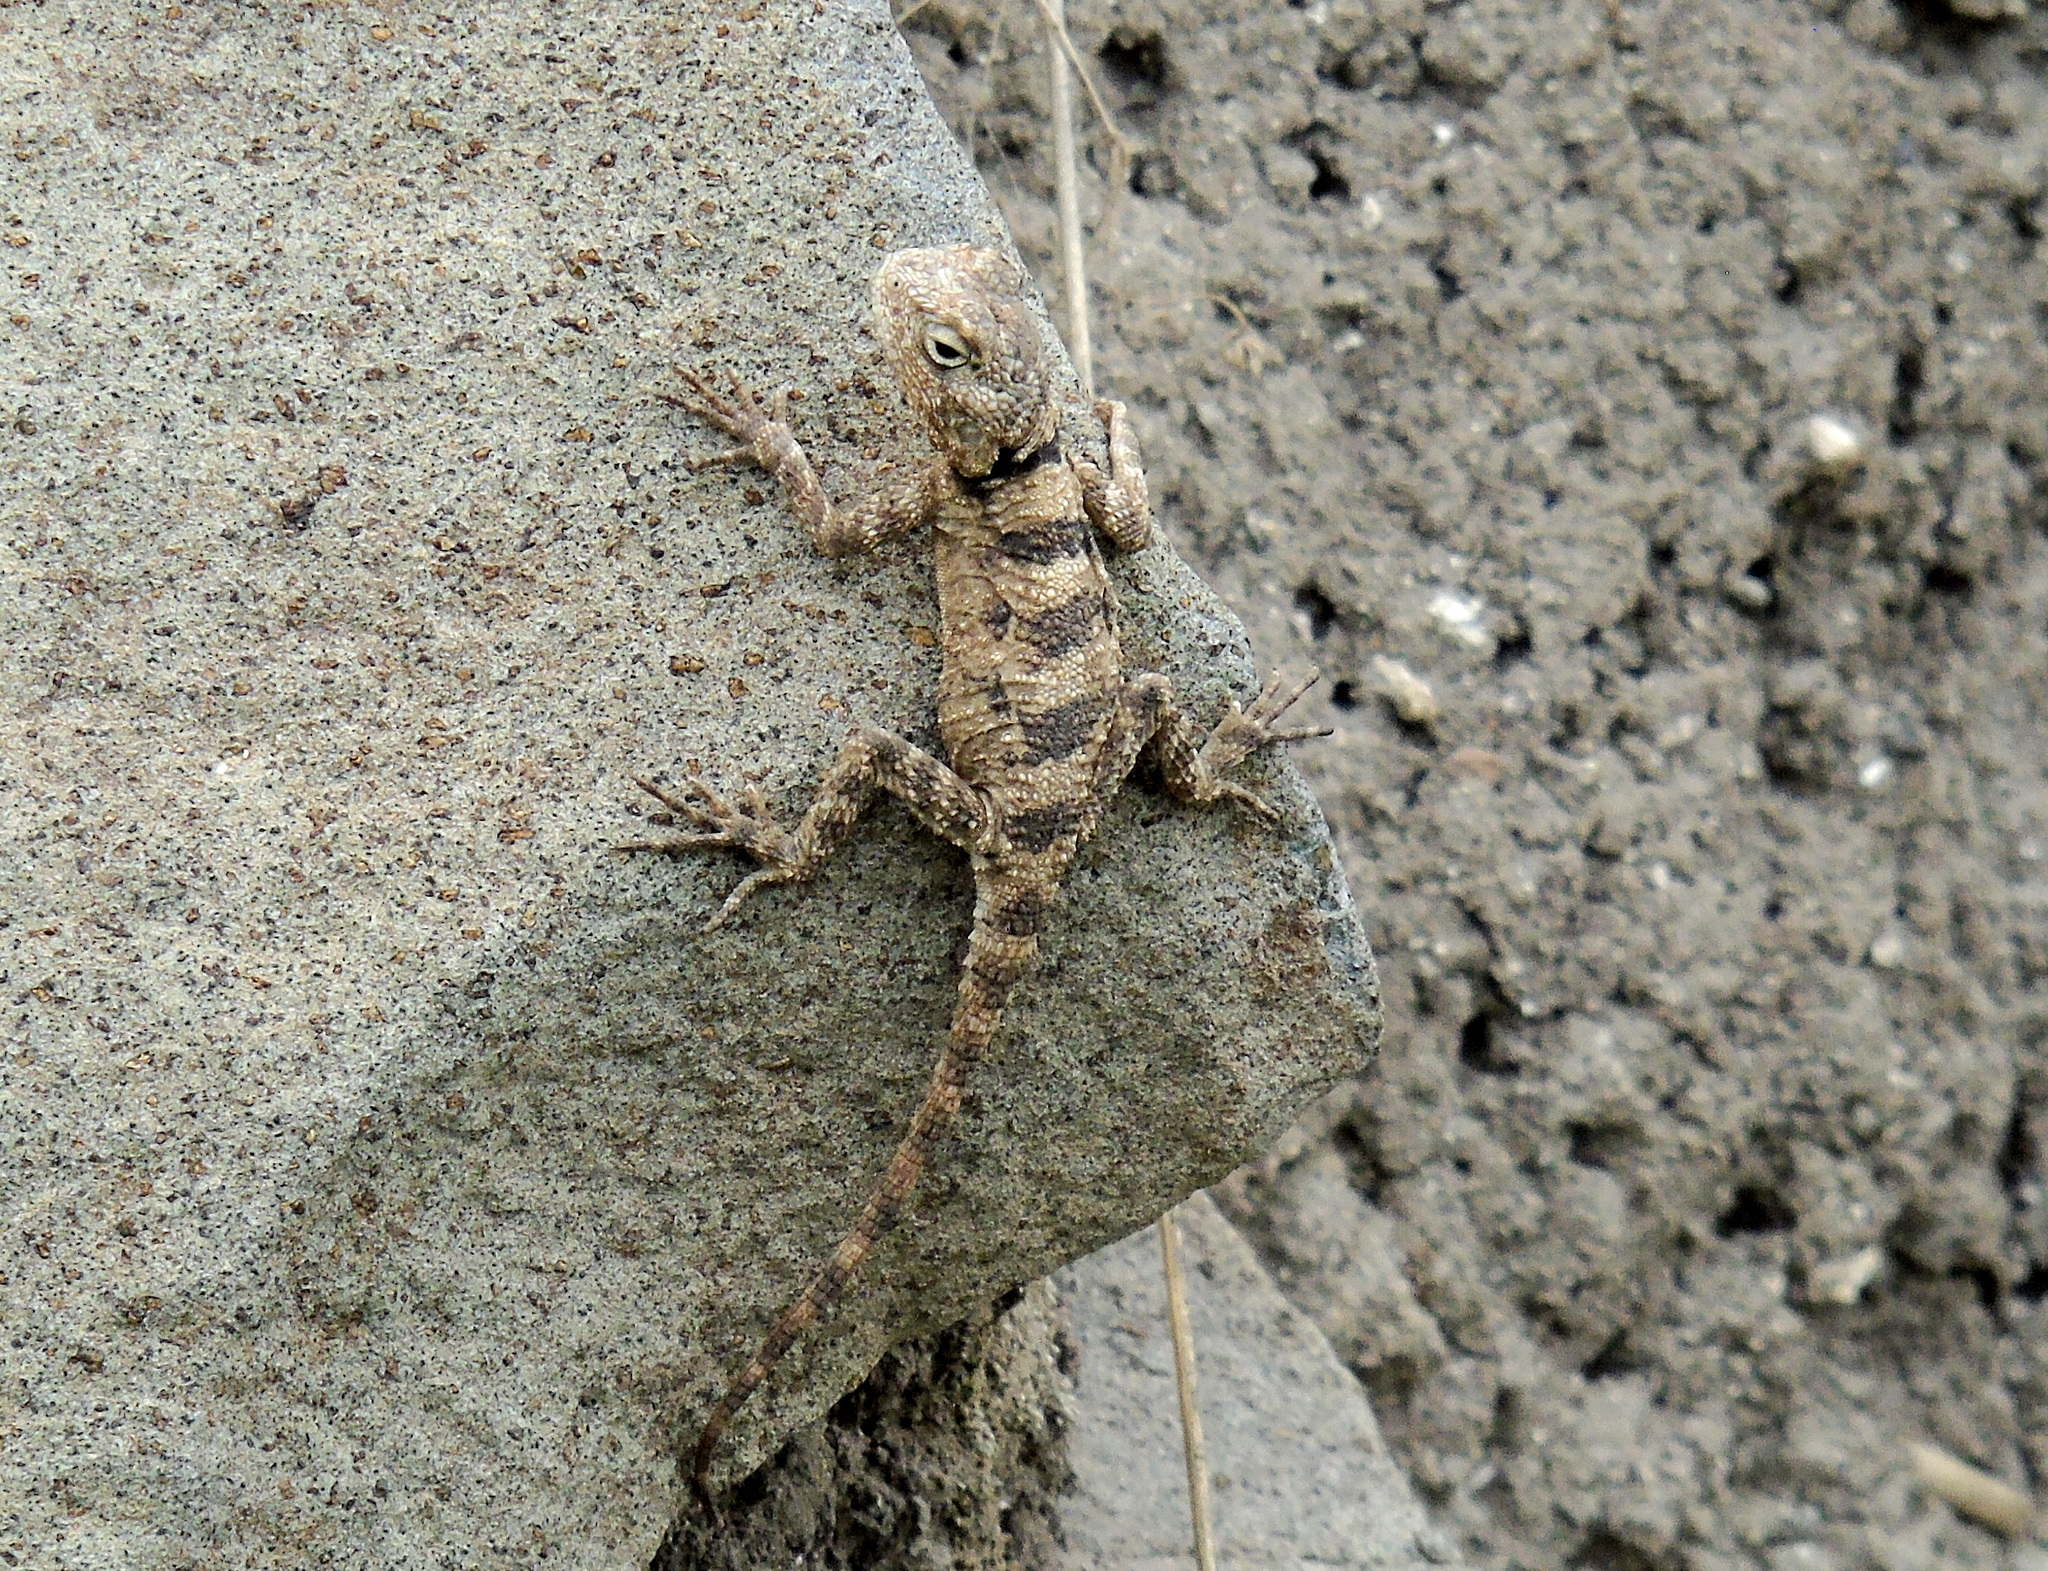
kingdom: Animalia
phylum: Chordata
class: Squamata
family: Agamidae
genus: Stellagama
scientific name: Stellagama stellio
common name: Starred agama
